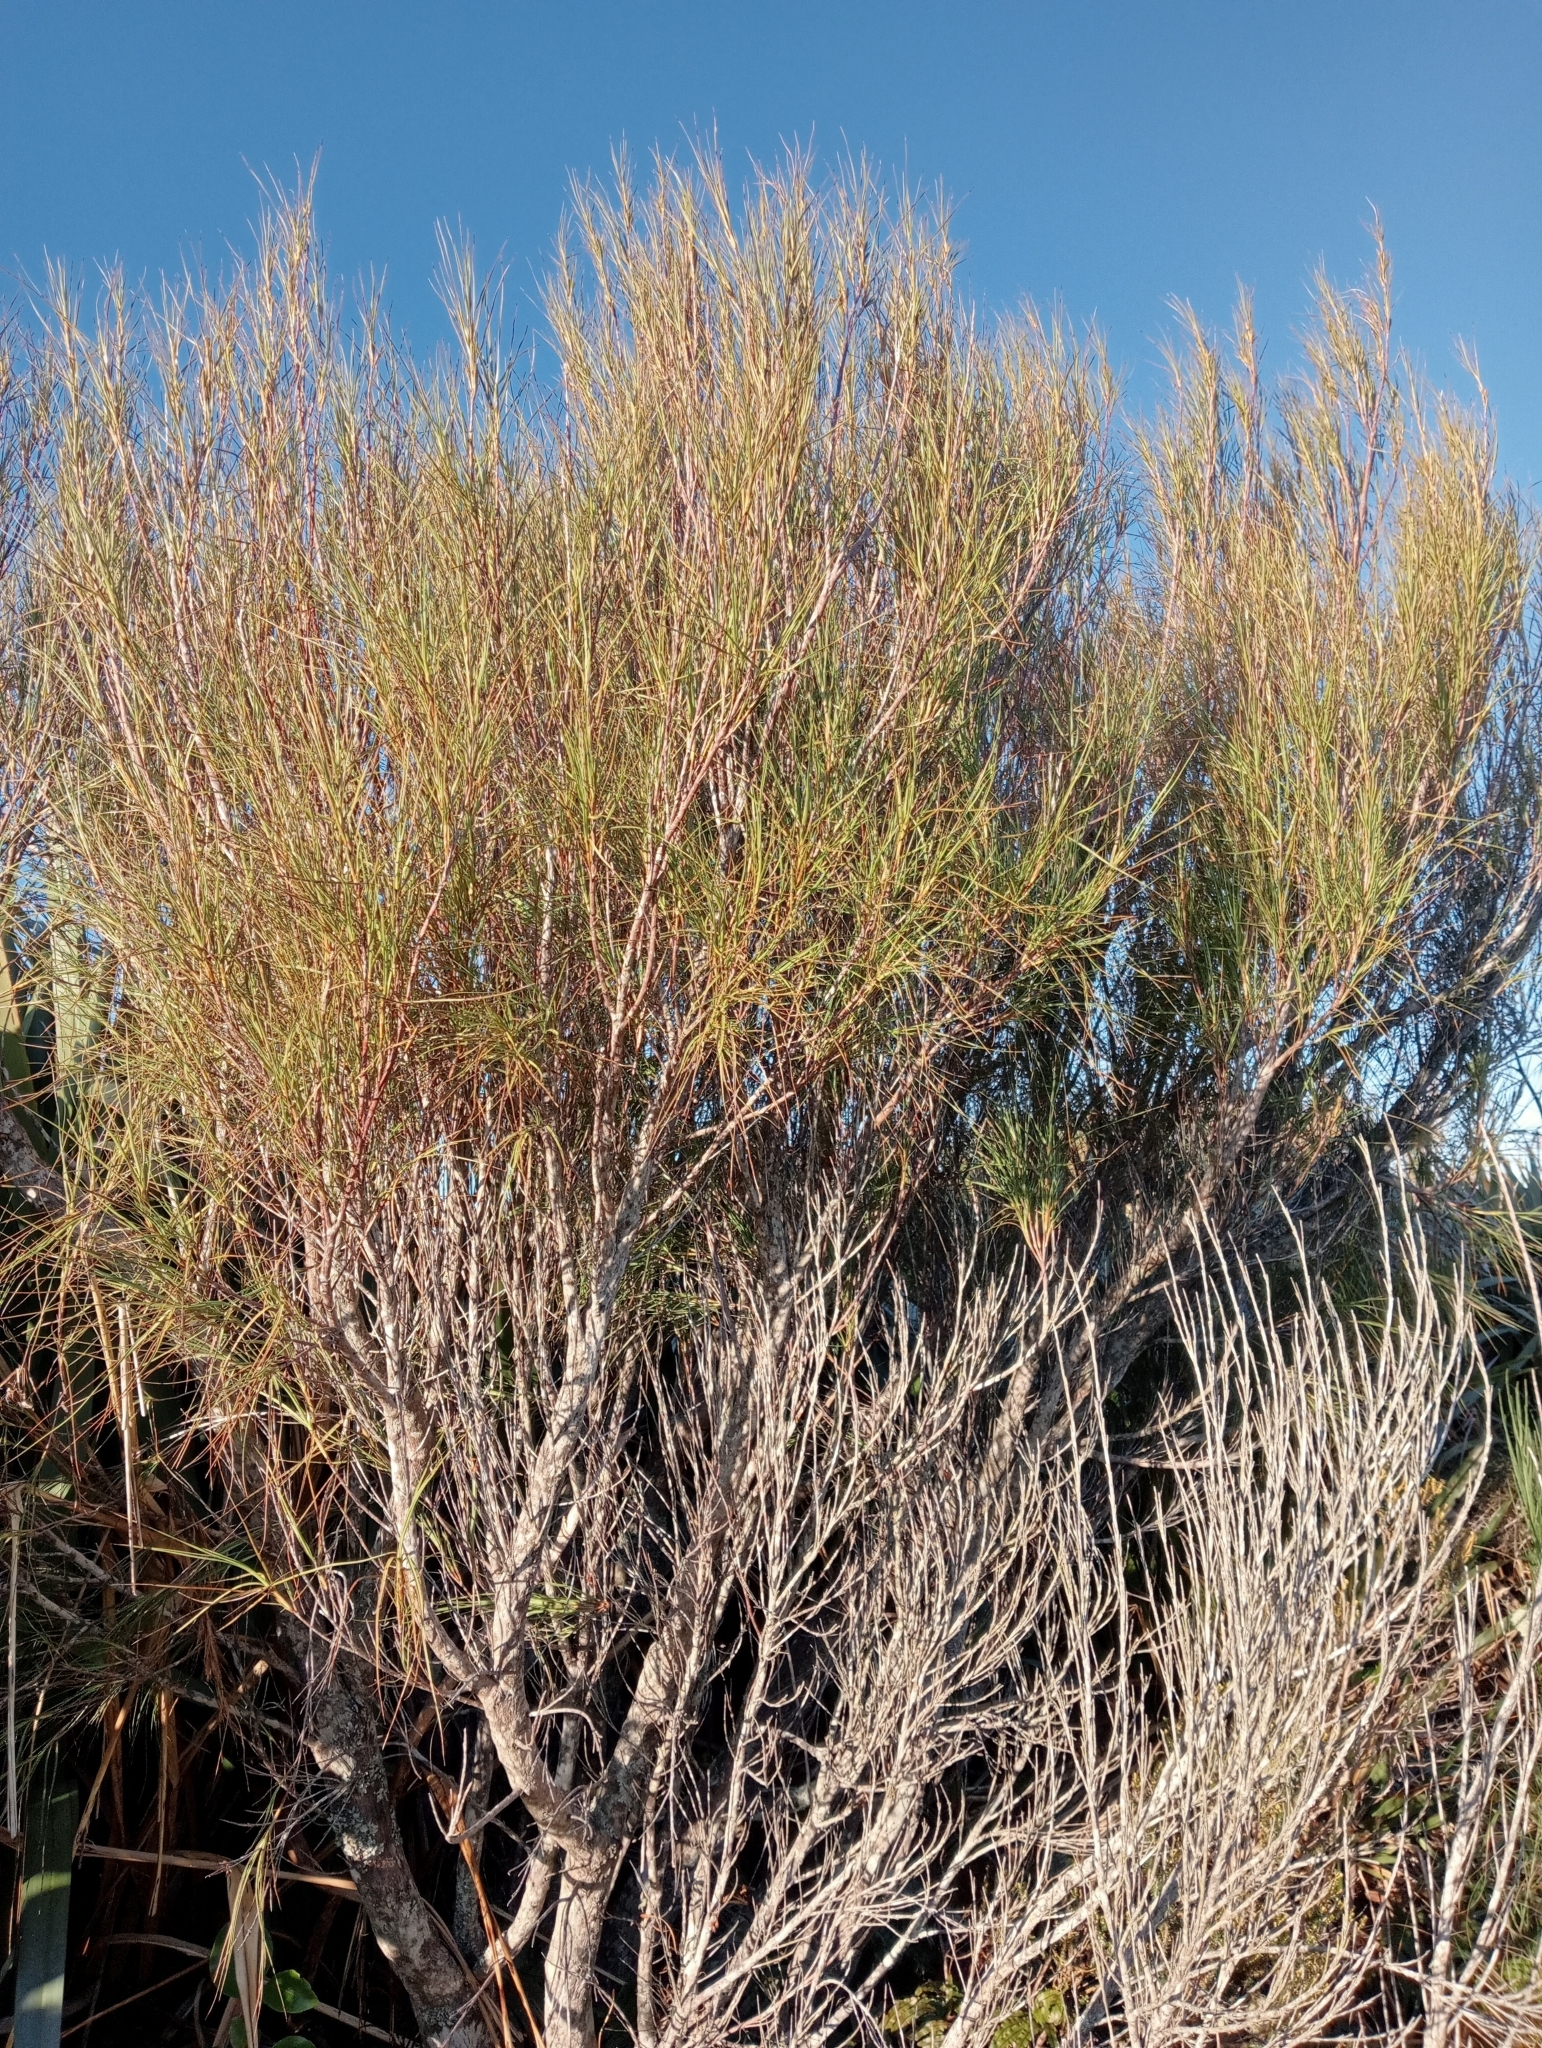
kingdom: Plantae
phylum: Tracheophyta
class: Magnoliopsida
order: Ericales
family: Ericaceae
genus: Dracophyllum
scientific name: Dracophyllum longifolium
